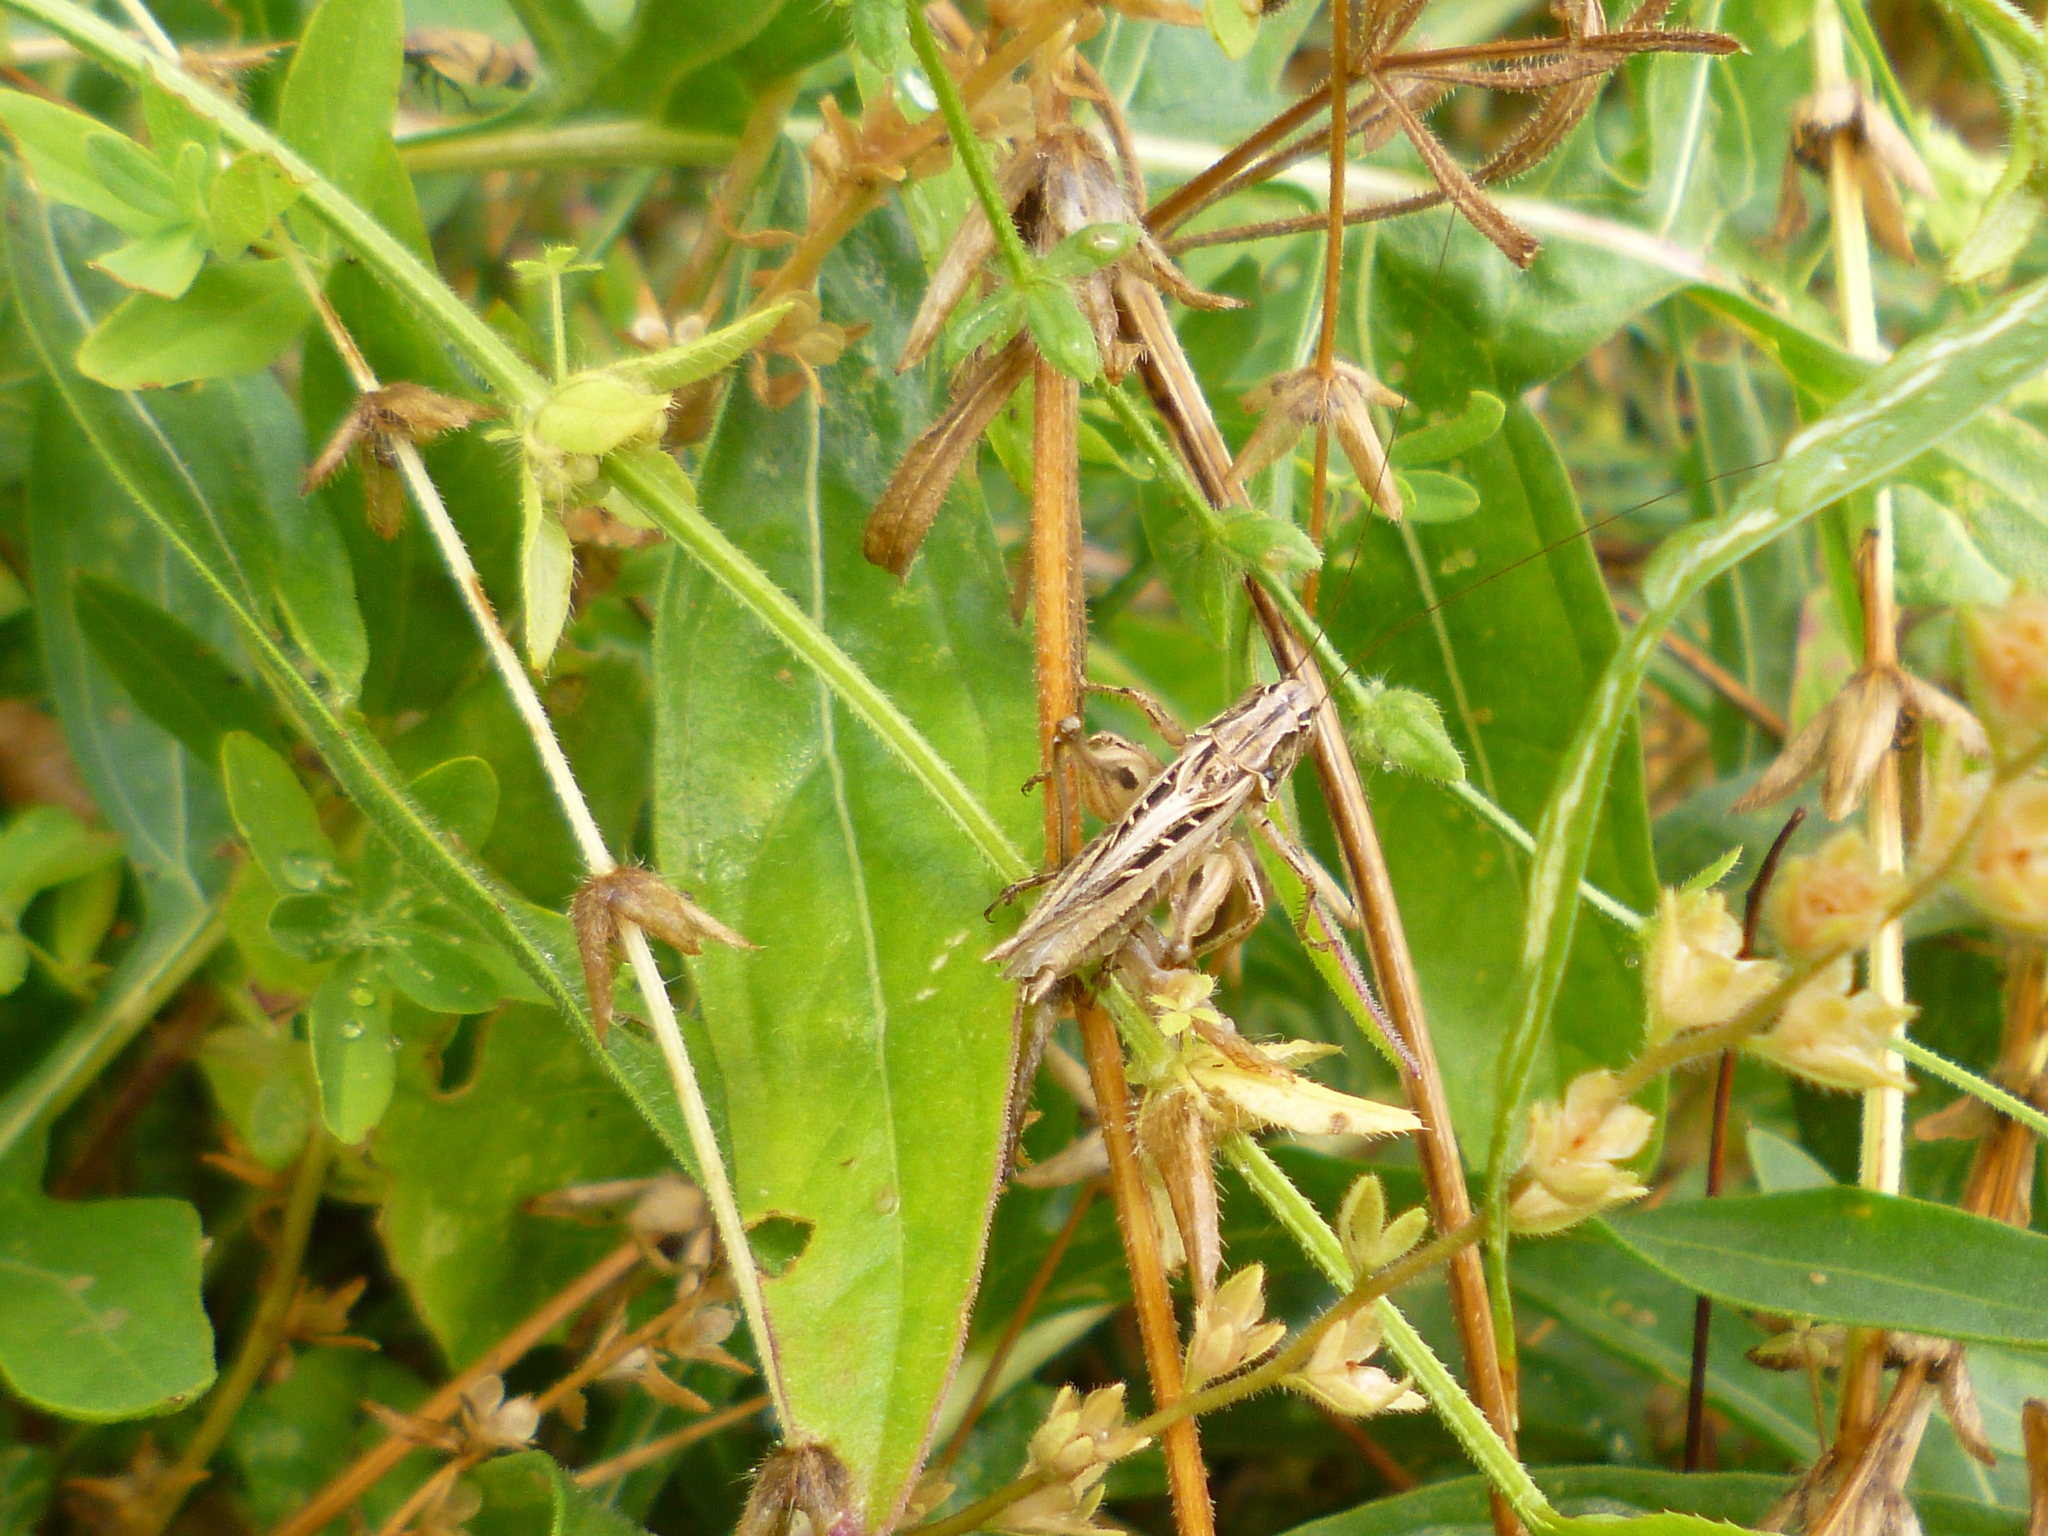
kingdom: Animalia
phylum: Arthropoda
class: Insecta
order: Orthoptera
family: Tettigoniidae
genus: Tessellana
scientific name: Tessellana tessellata
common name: Grasshopper
